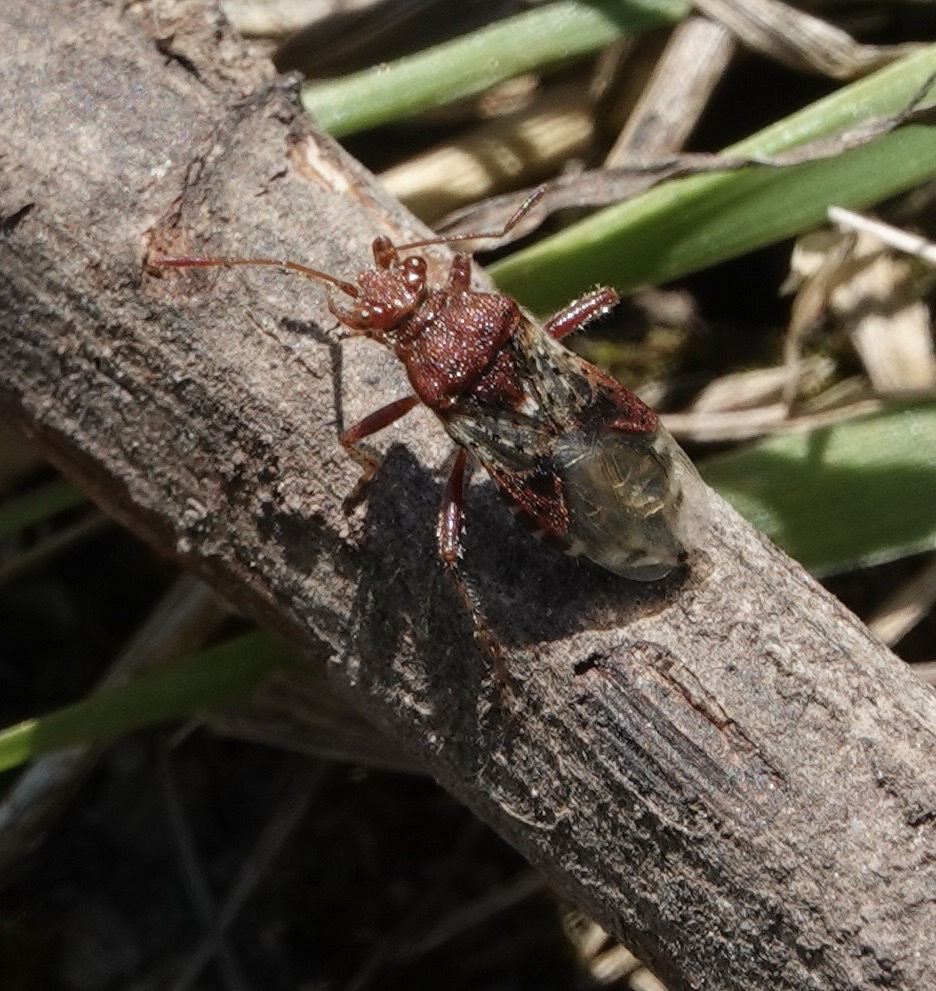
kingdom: Animalia
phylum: Arthropoda
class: Insecta
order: Hemiptera
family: Rhopalidae
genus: Rhopalus
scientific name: Rhopalus subrufus
